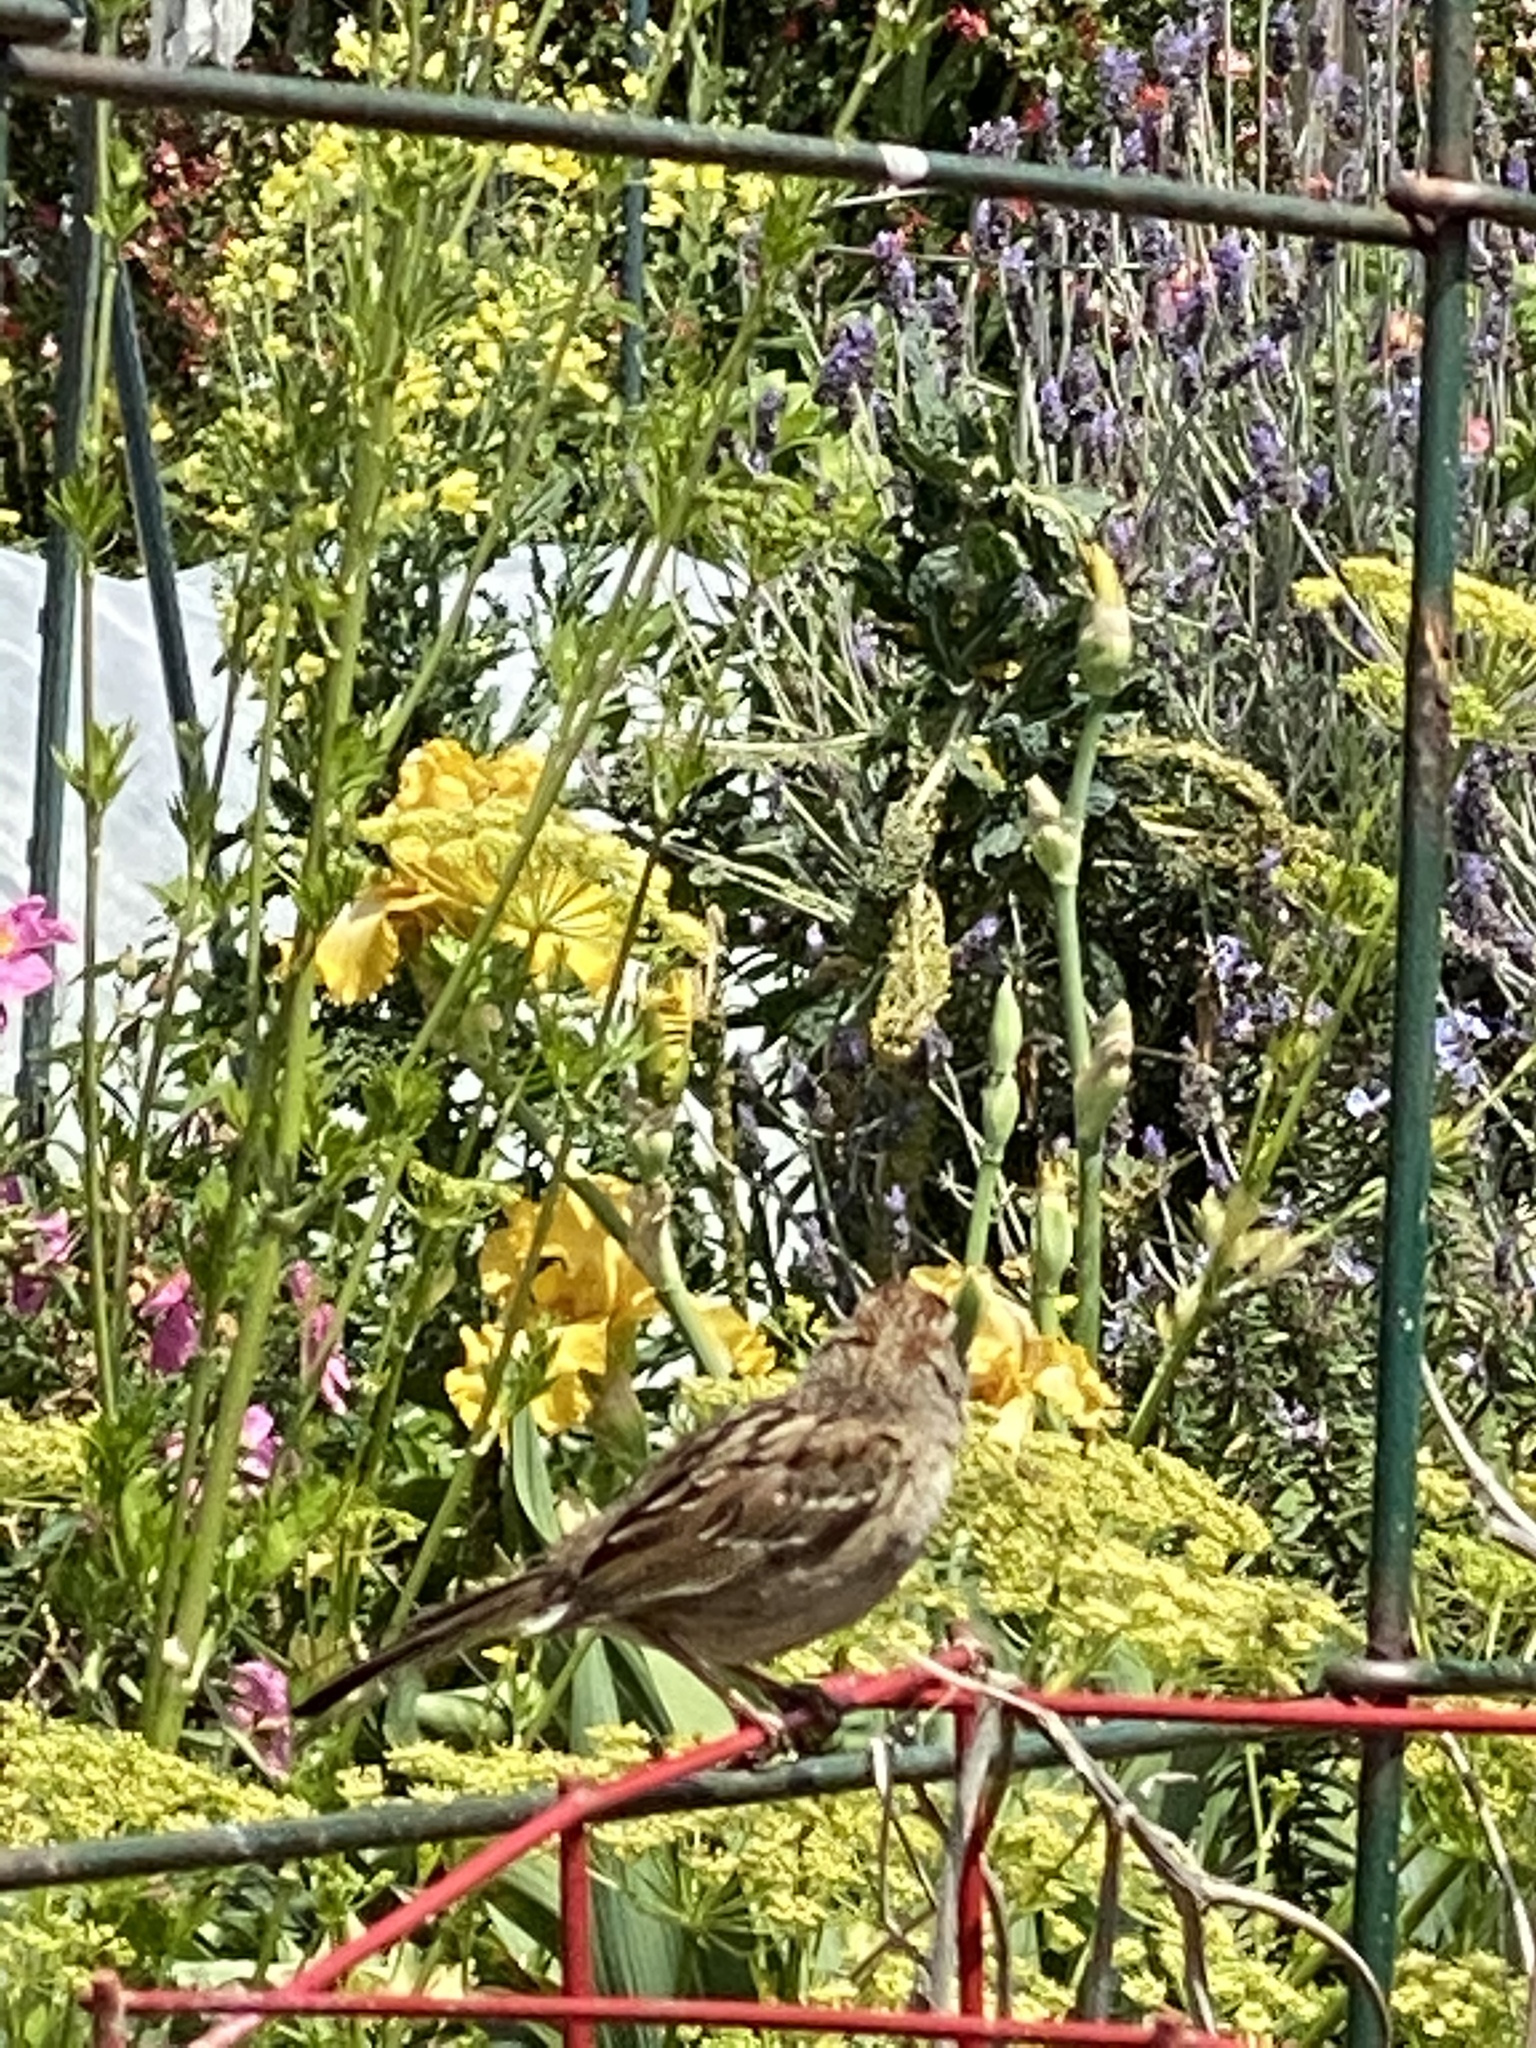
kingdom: Animalia
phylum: Chordata
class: Aves
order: Passeriformes
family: Passerellidae
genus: Zonotrichia
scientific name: Zonotrichia atricapilla
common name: Golden-crowned sparrow
